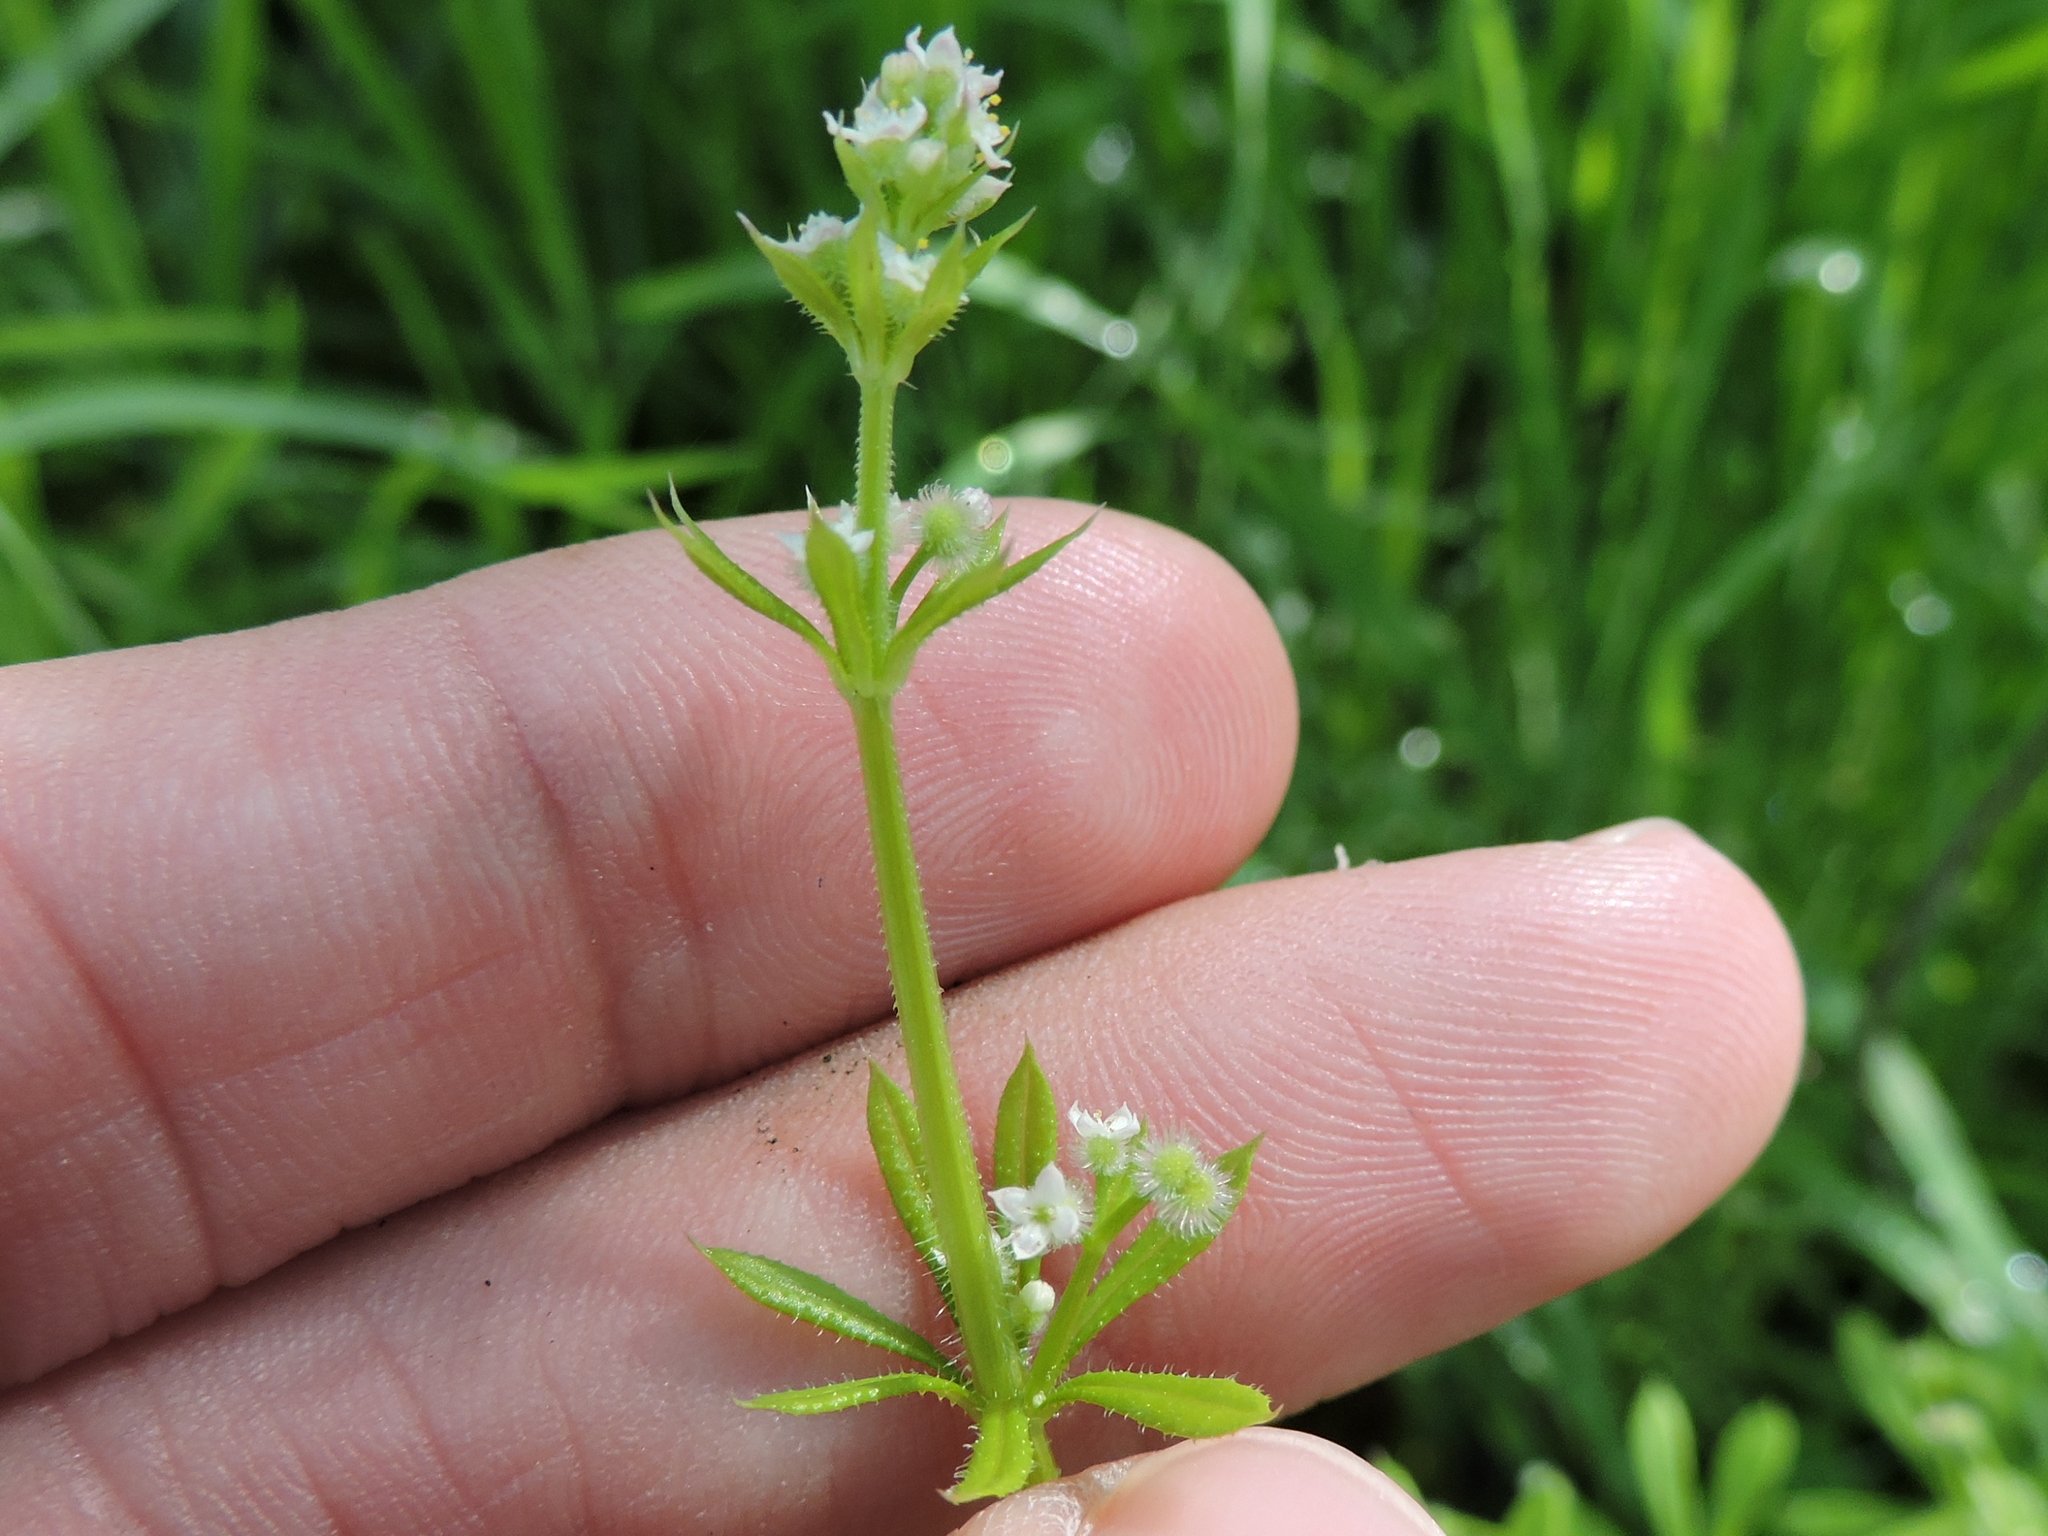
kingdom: Plantae
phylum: Tracheophyta
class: Magnoliopsida
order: Gentianales
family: Rubiaceae
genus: Galium
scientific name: Galium aparine
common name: Cleavers
